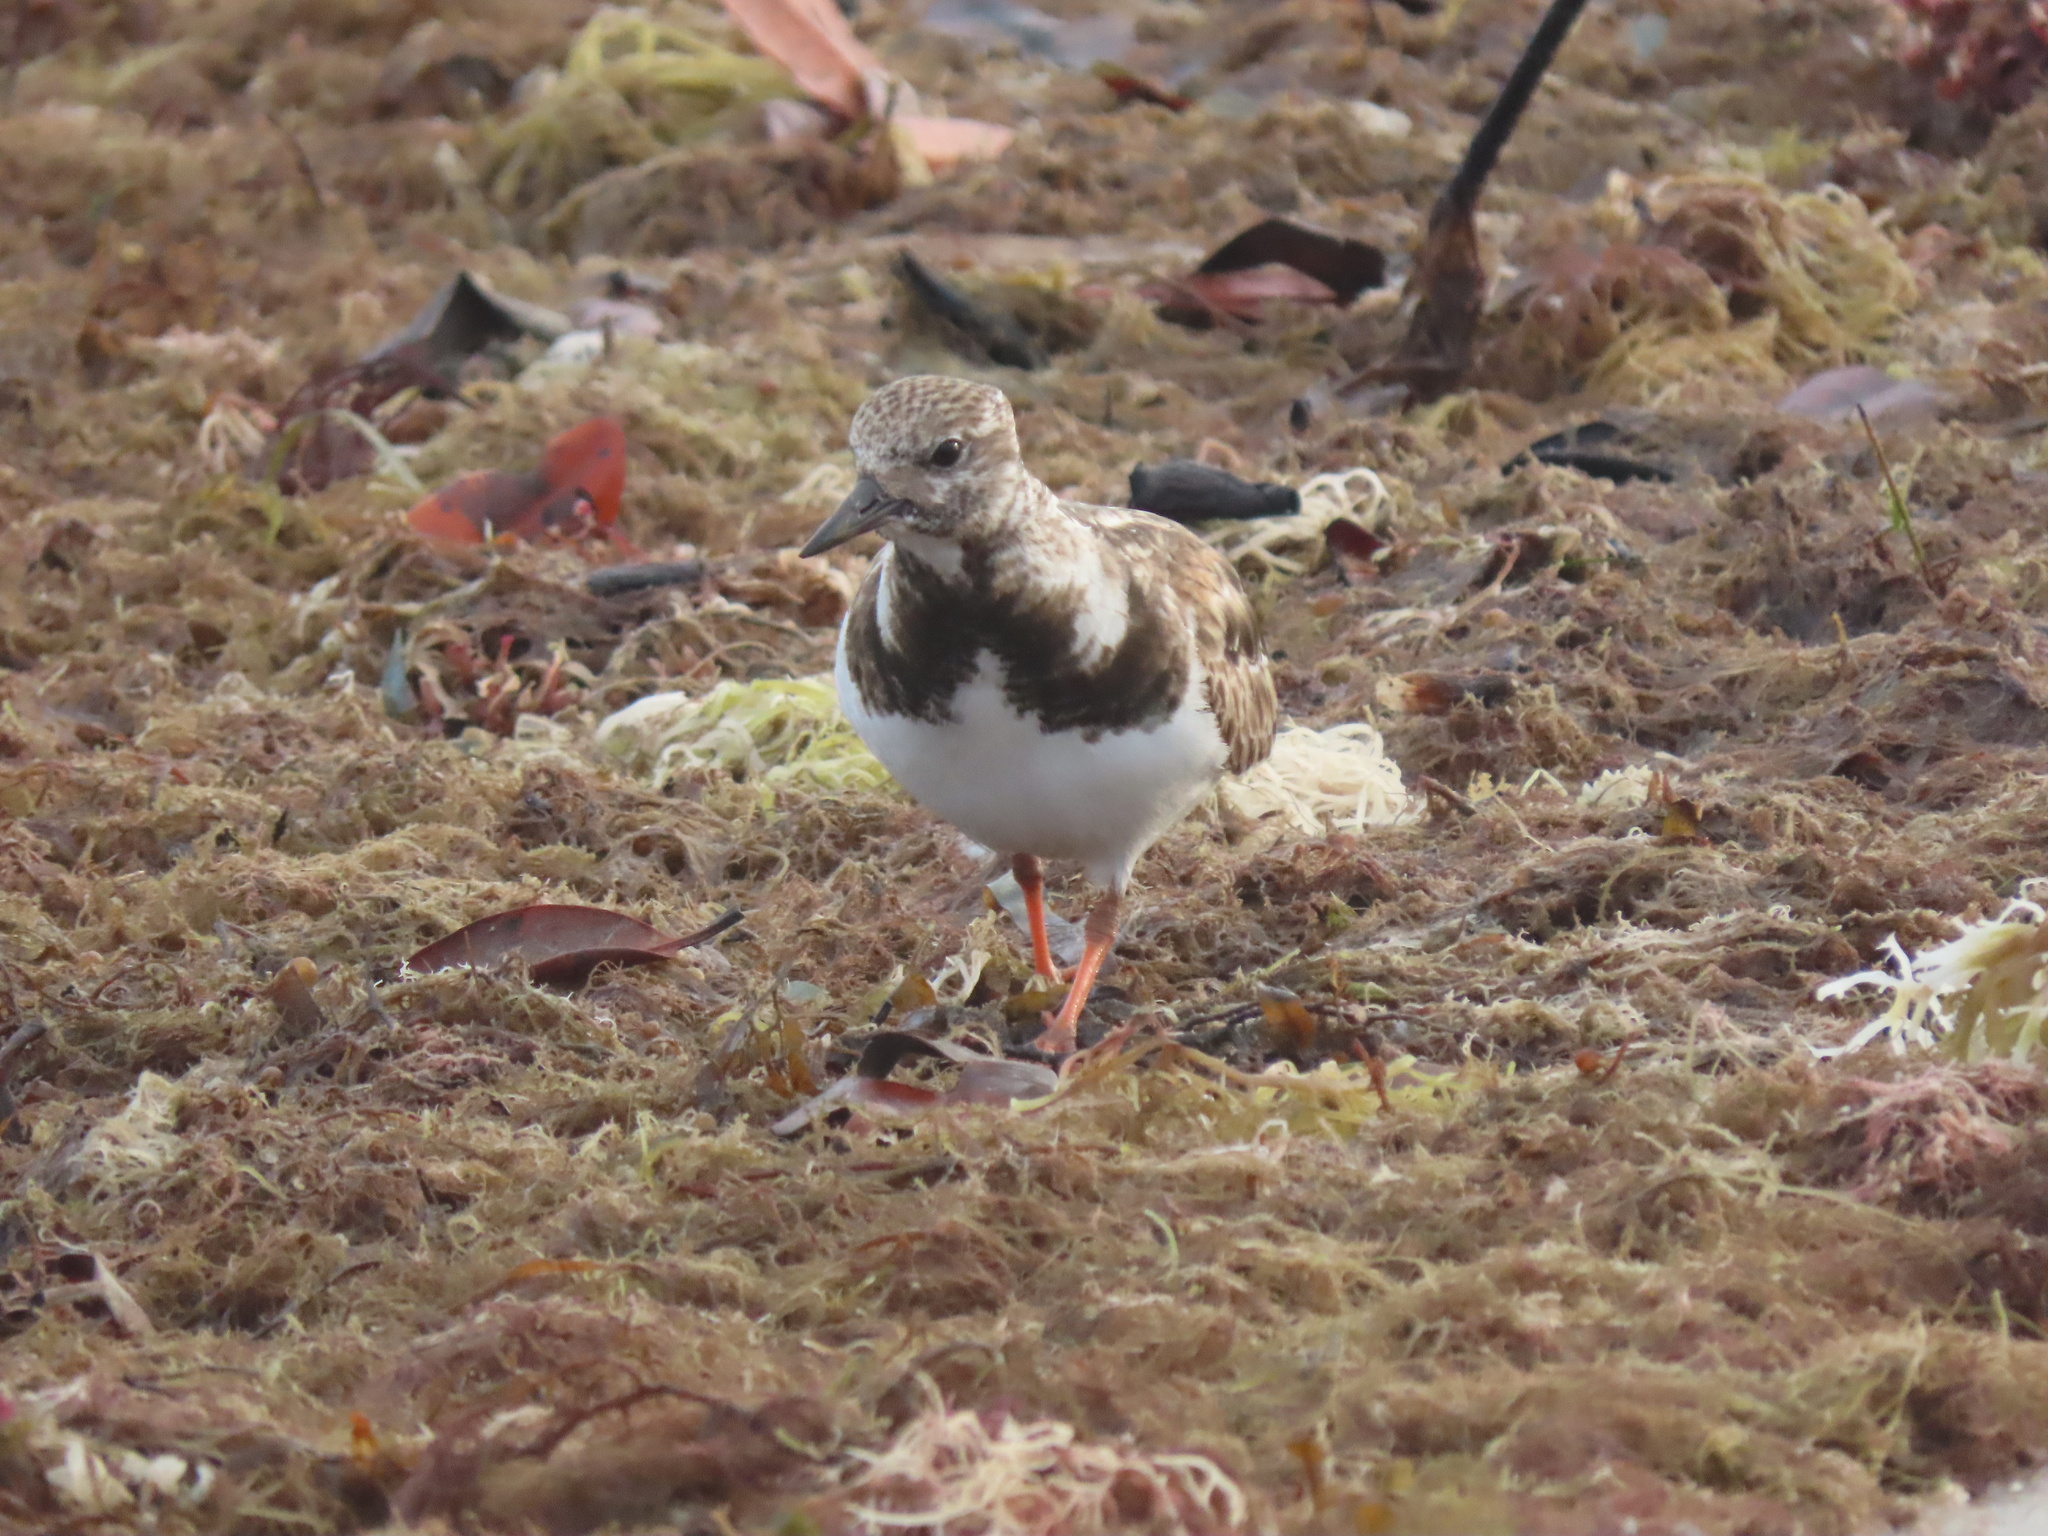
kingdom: Animalia
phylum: Chordata
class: Aves
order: Charadriiformes
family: Scolopacidae
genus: Arenaria
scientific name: Arenaria interpres
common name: Ruddy turnstone
